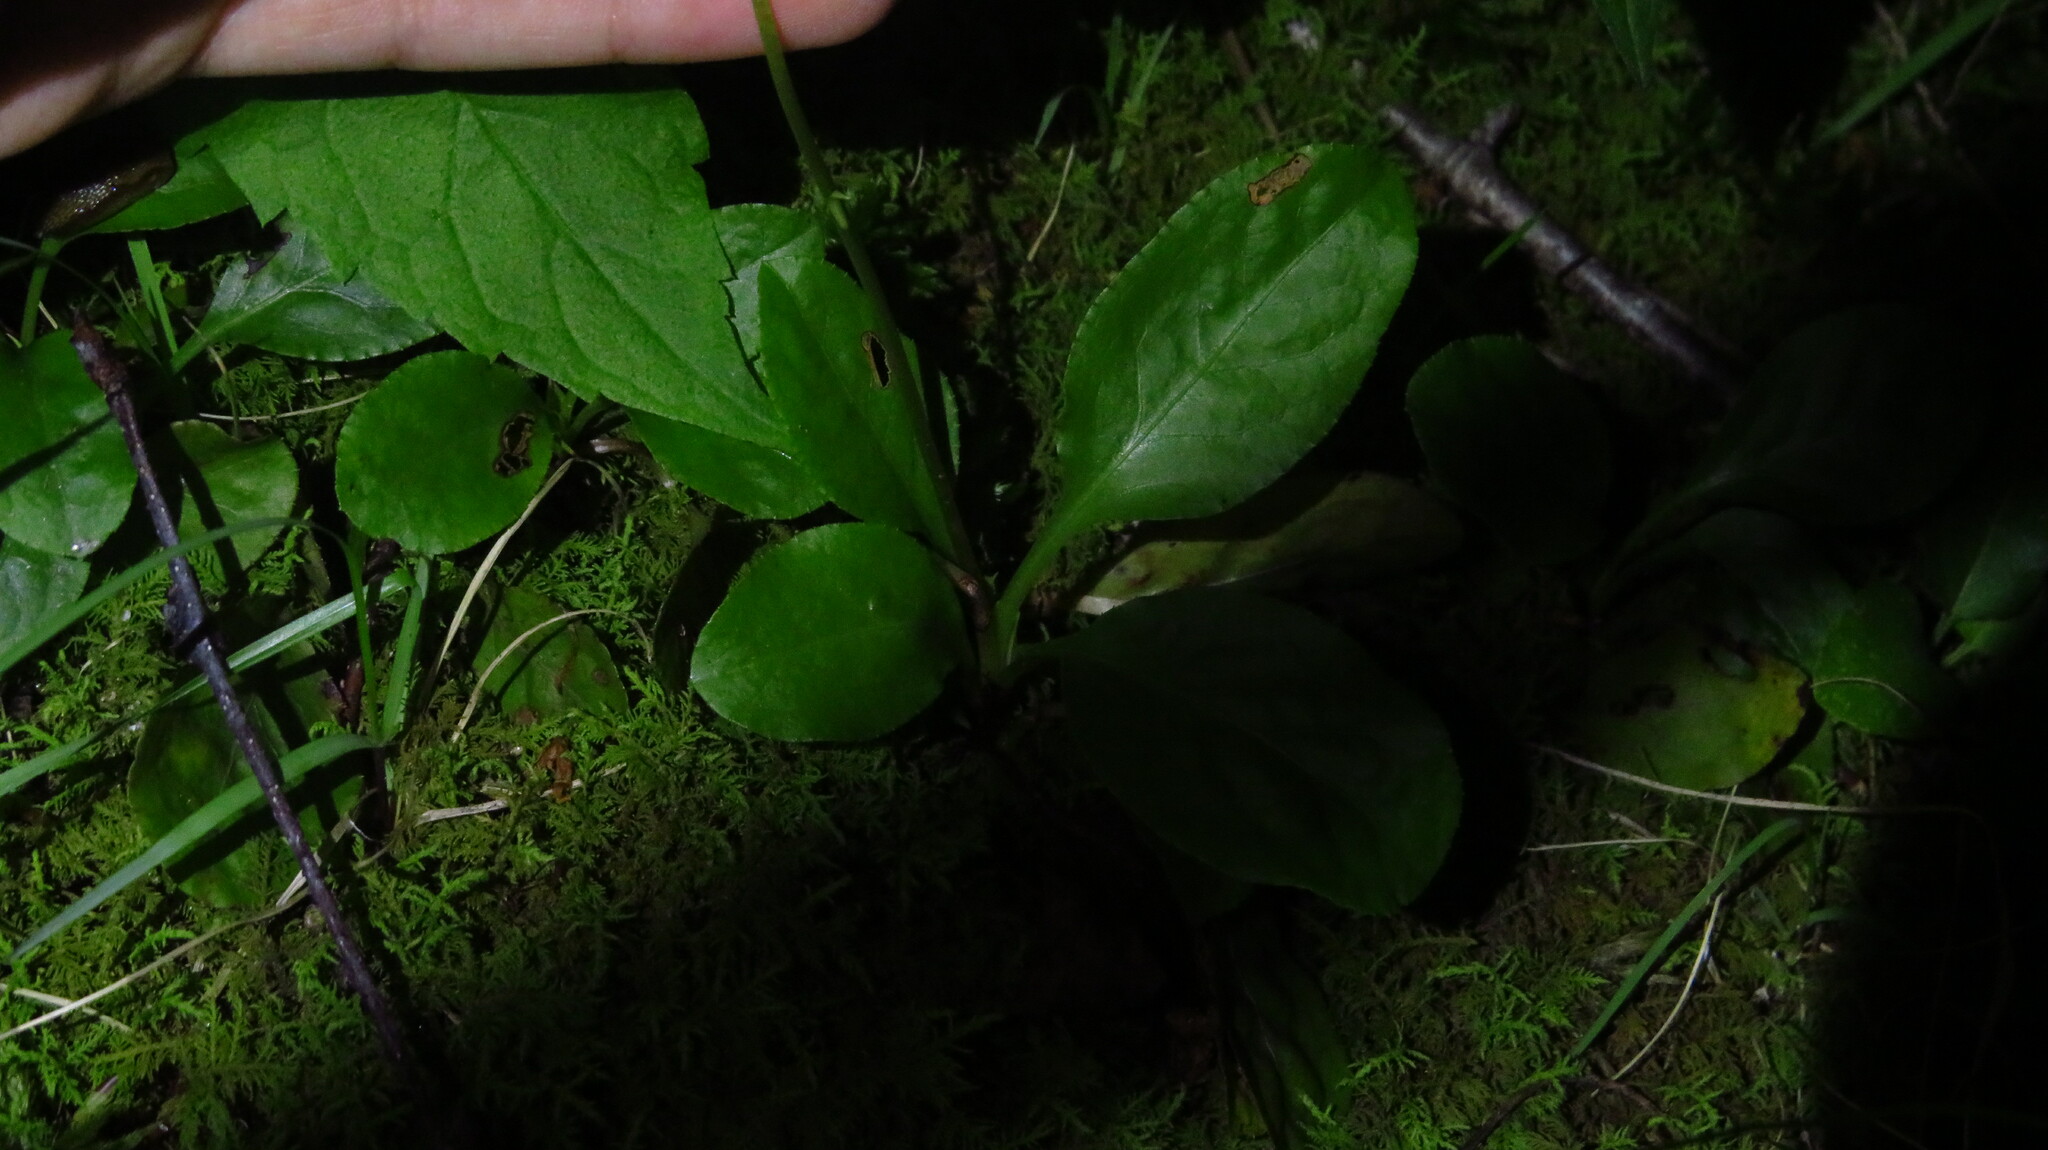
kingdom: Plantae
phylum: Tracheophyta
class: Magnoliopsida
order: Ericales
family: Ericaceae
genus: Pyrola
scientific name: Pyrola elliptica
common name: Shinleaf
